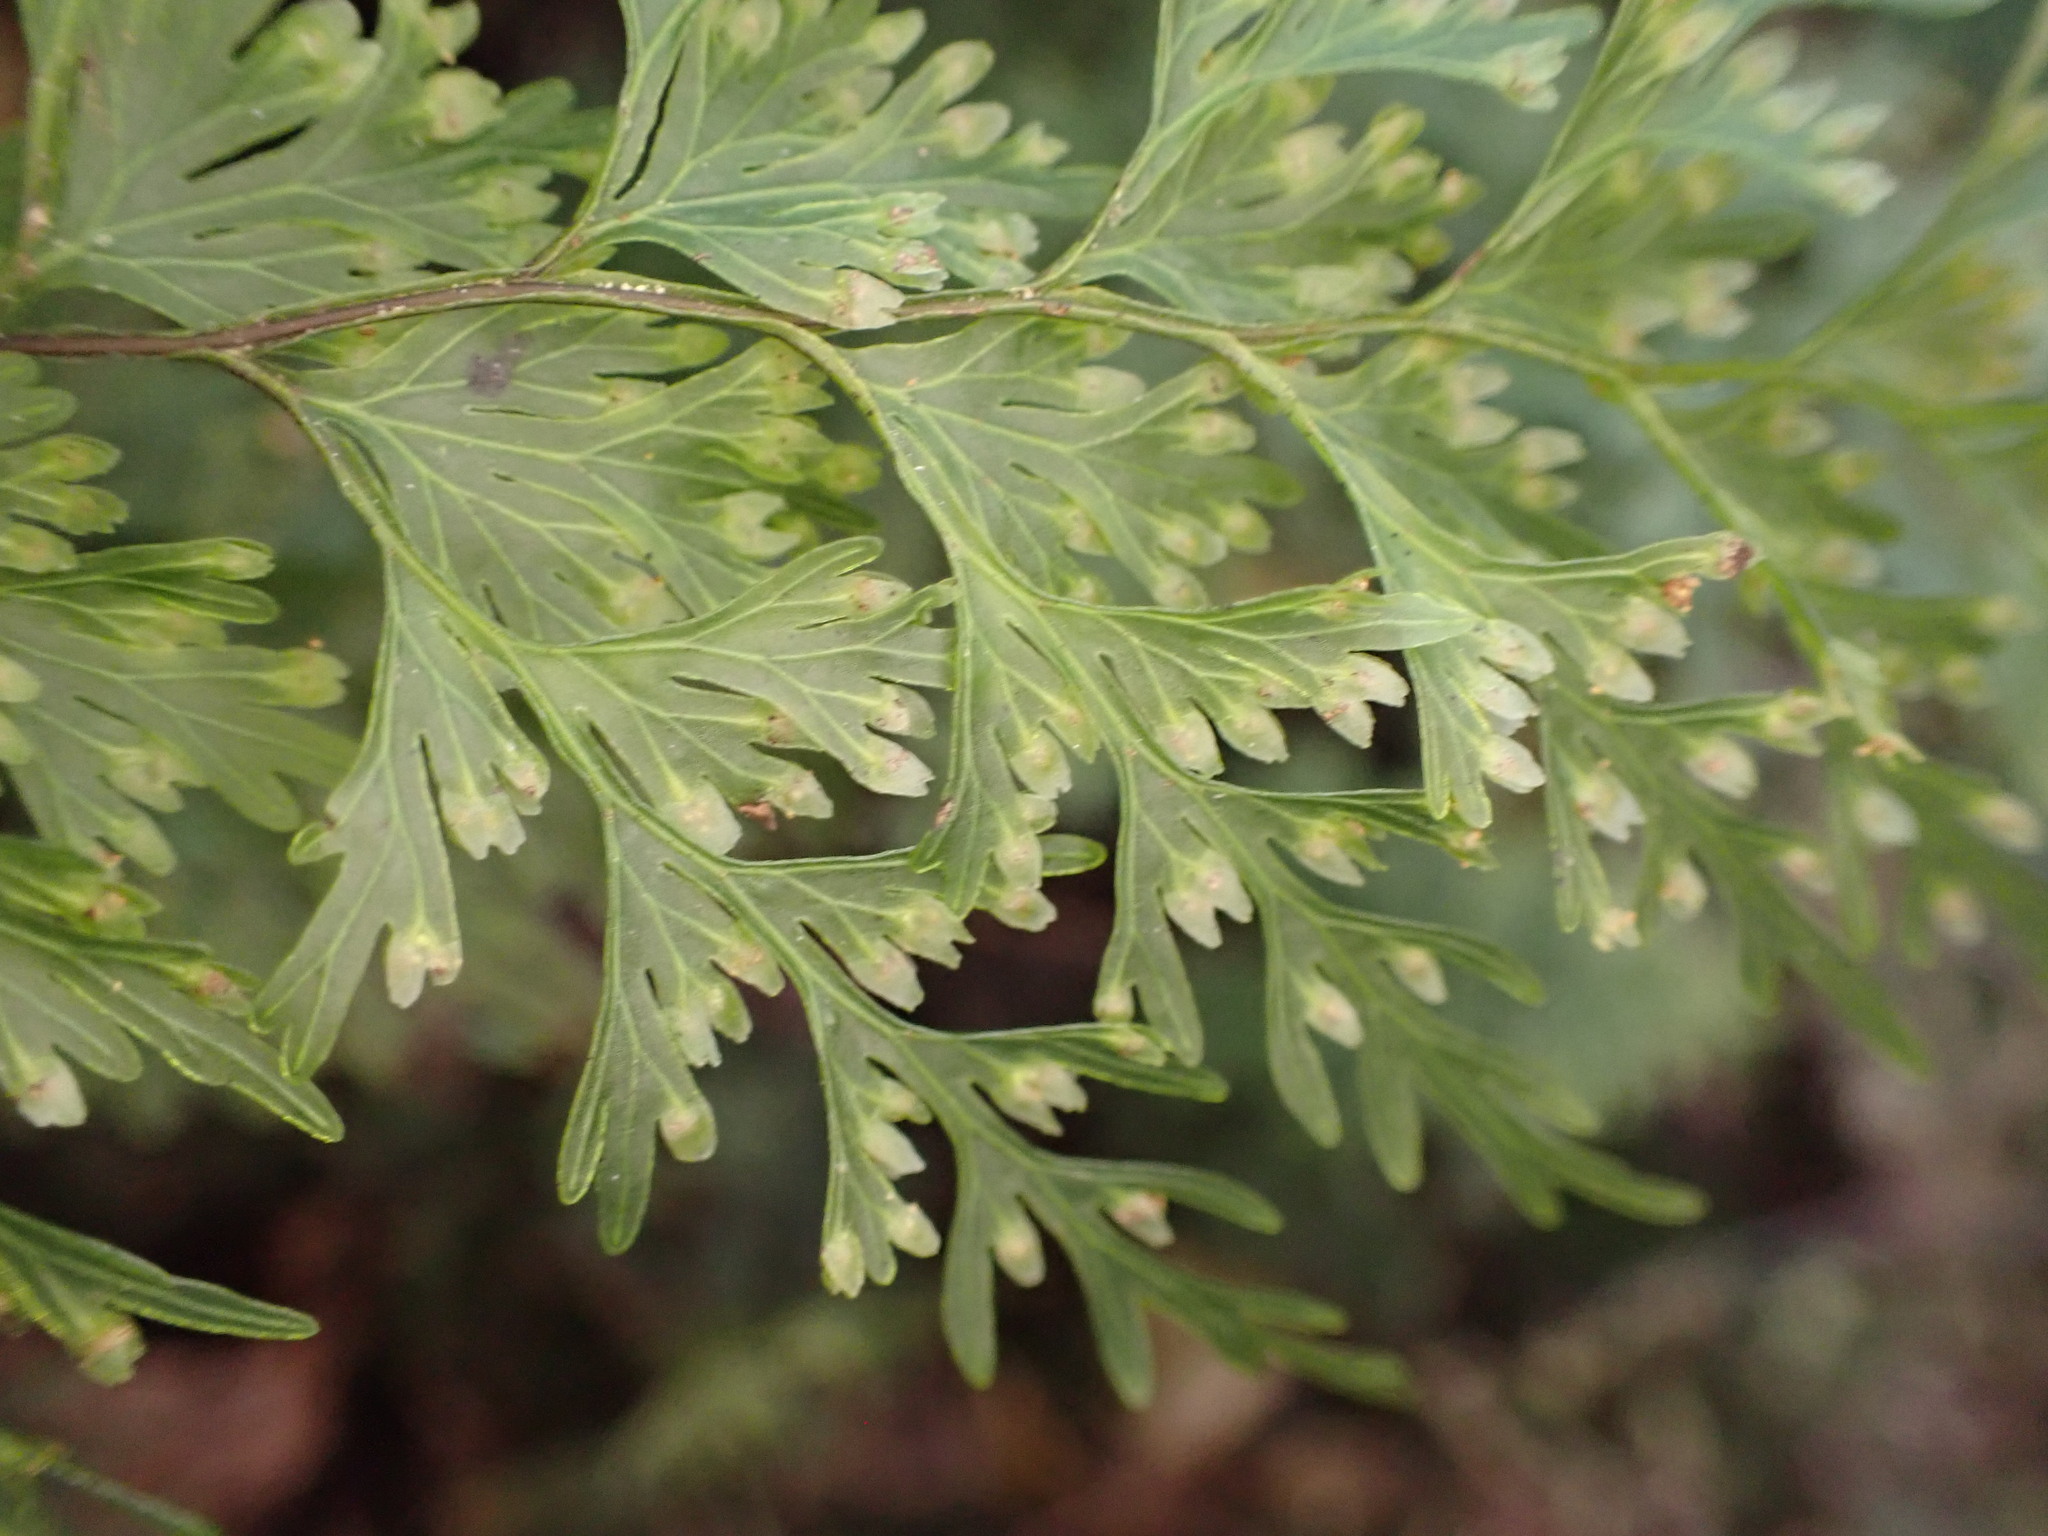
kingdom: Plantae
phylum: Tracheophyta
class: Polypodiopsida
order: Hymenophyllales
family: Hymenophyllaceae
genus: Hymenophyllum
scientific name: Hymenophyllum demissum
